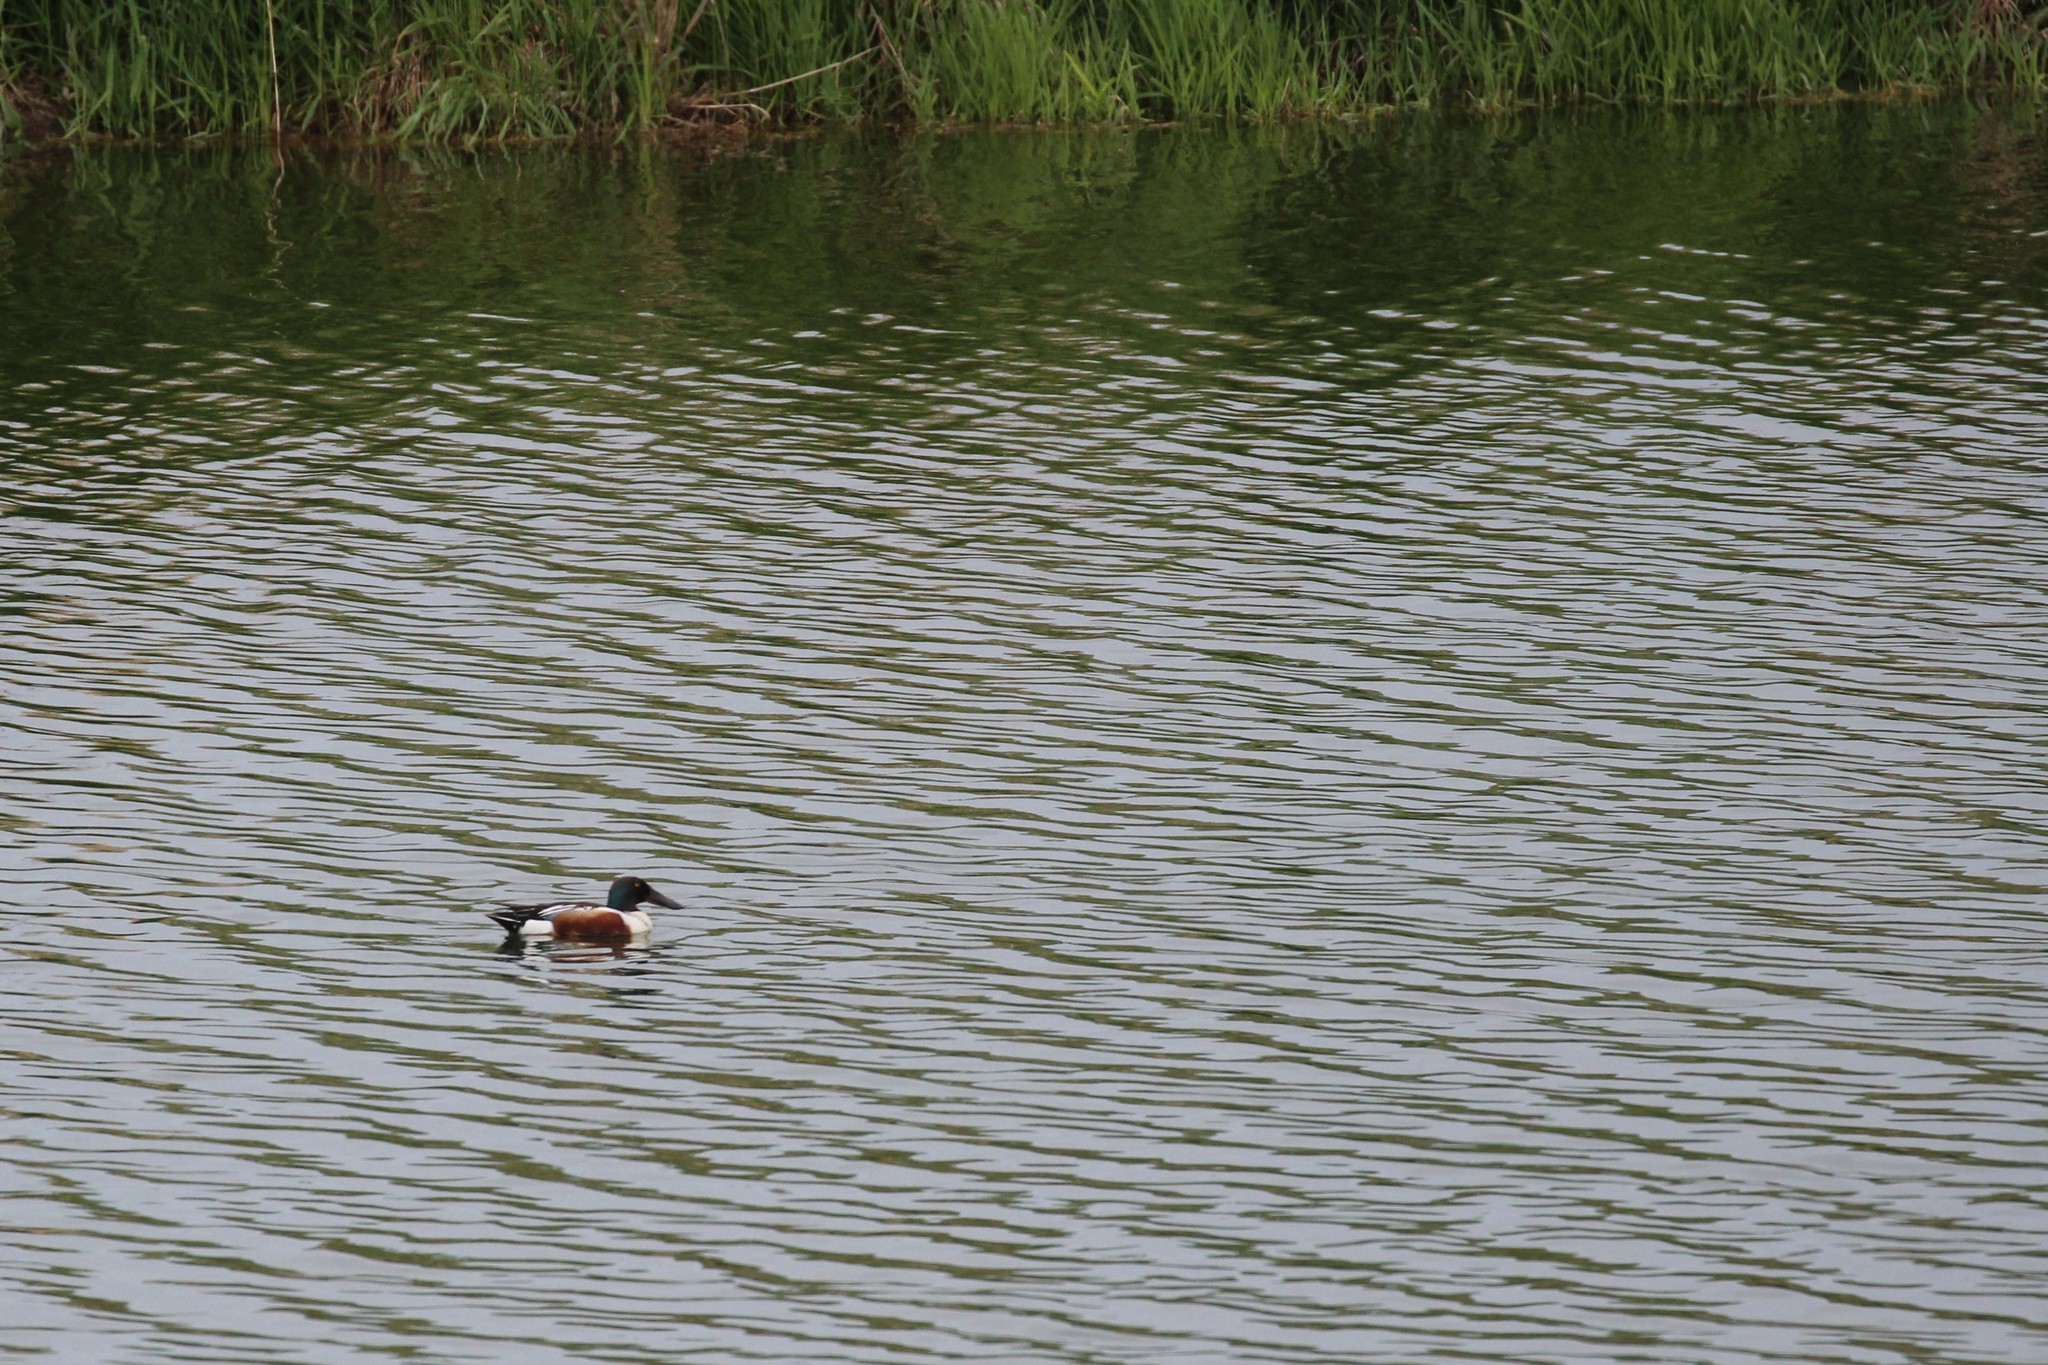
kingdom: Animalia
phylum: Chordata
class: Aves
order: Anseriformes
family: Anatidae
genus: Spatula
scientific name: Spatula clypeata
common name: Northern shoveler
